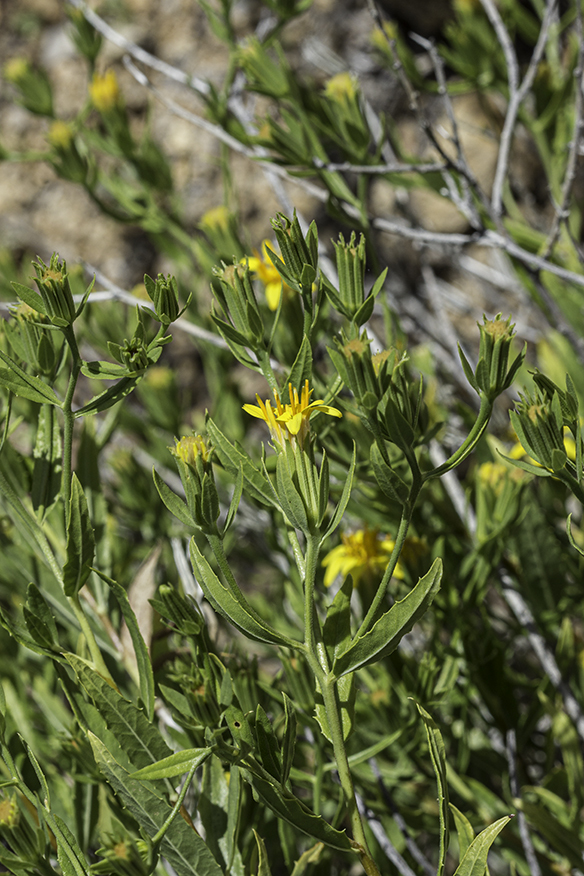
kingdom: Plantae
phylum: Tracheophyta
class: Magnoliopsida
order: Asterales
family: Asteraceae
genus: Trixis
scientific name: Trixis californica
